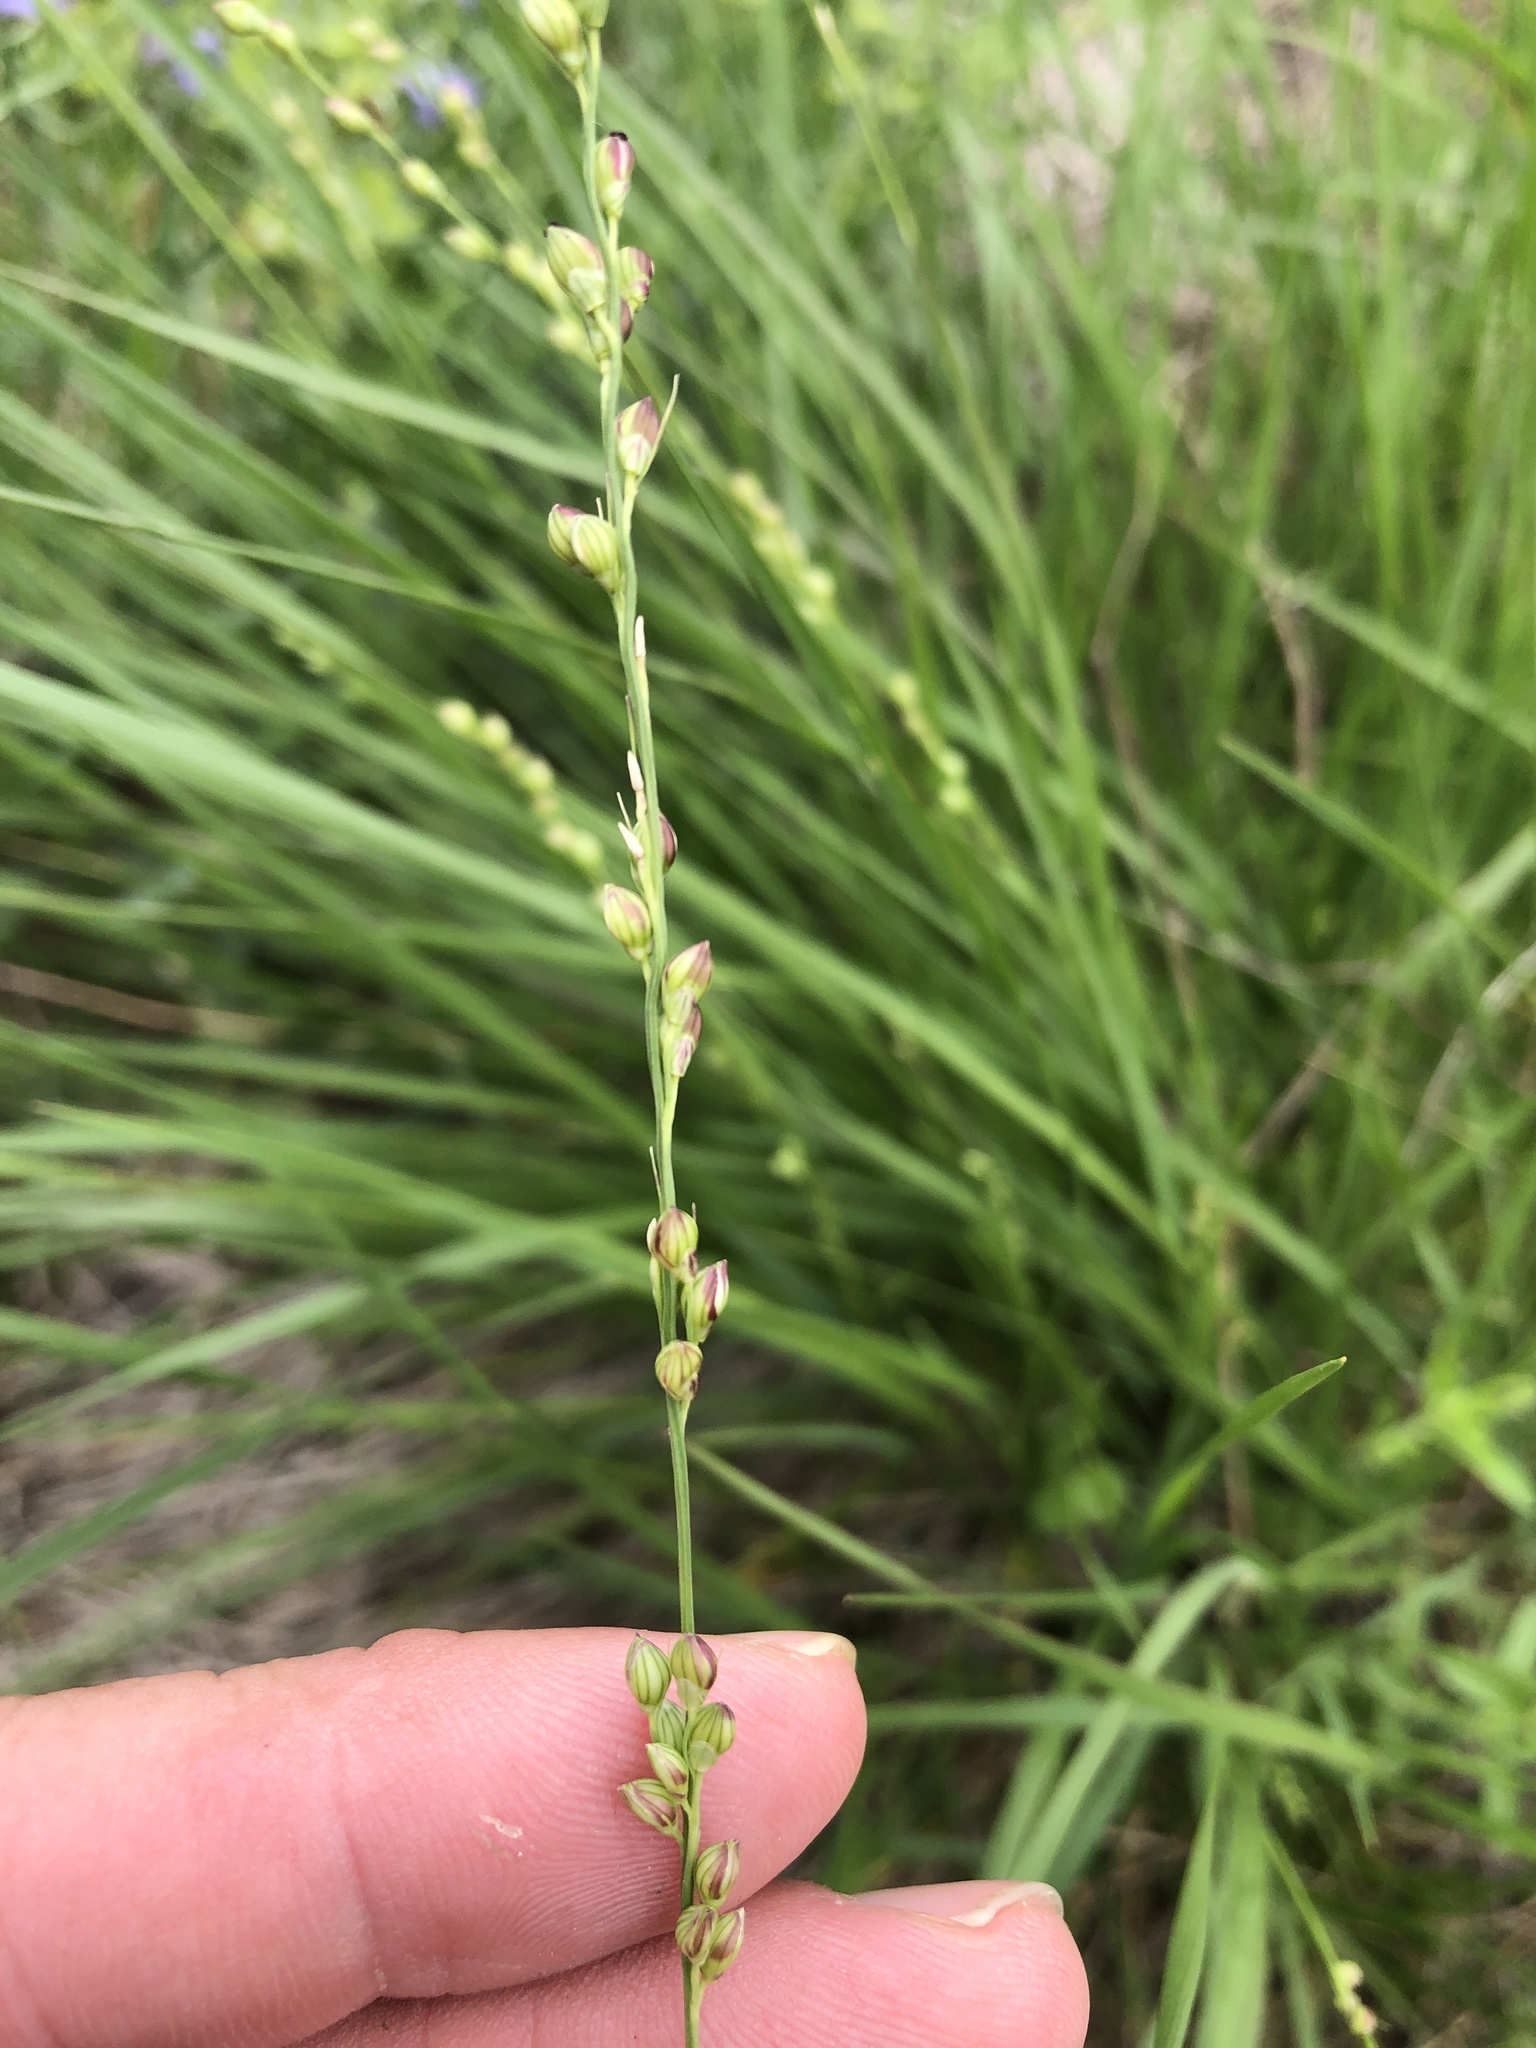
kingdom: Plantae
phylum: Tracheophyta
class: Liliopsida
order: Poales
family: Poaceae
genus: Setaria
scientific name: Setaria reverchonii
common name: Reverchon's bristle grass
